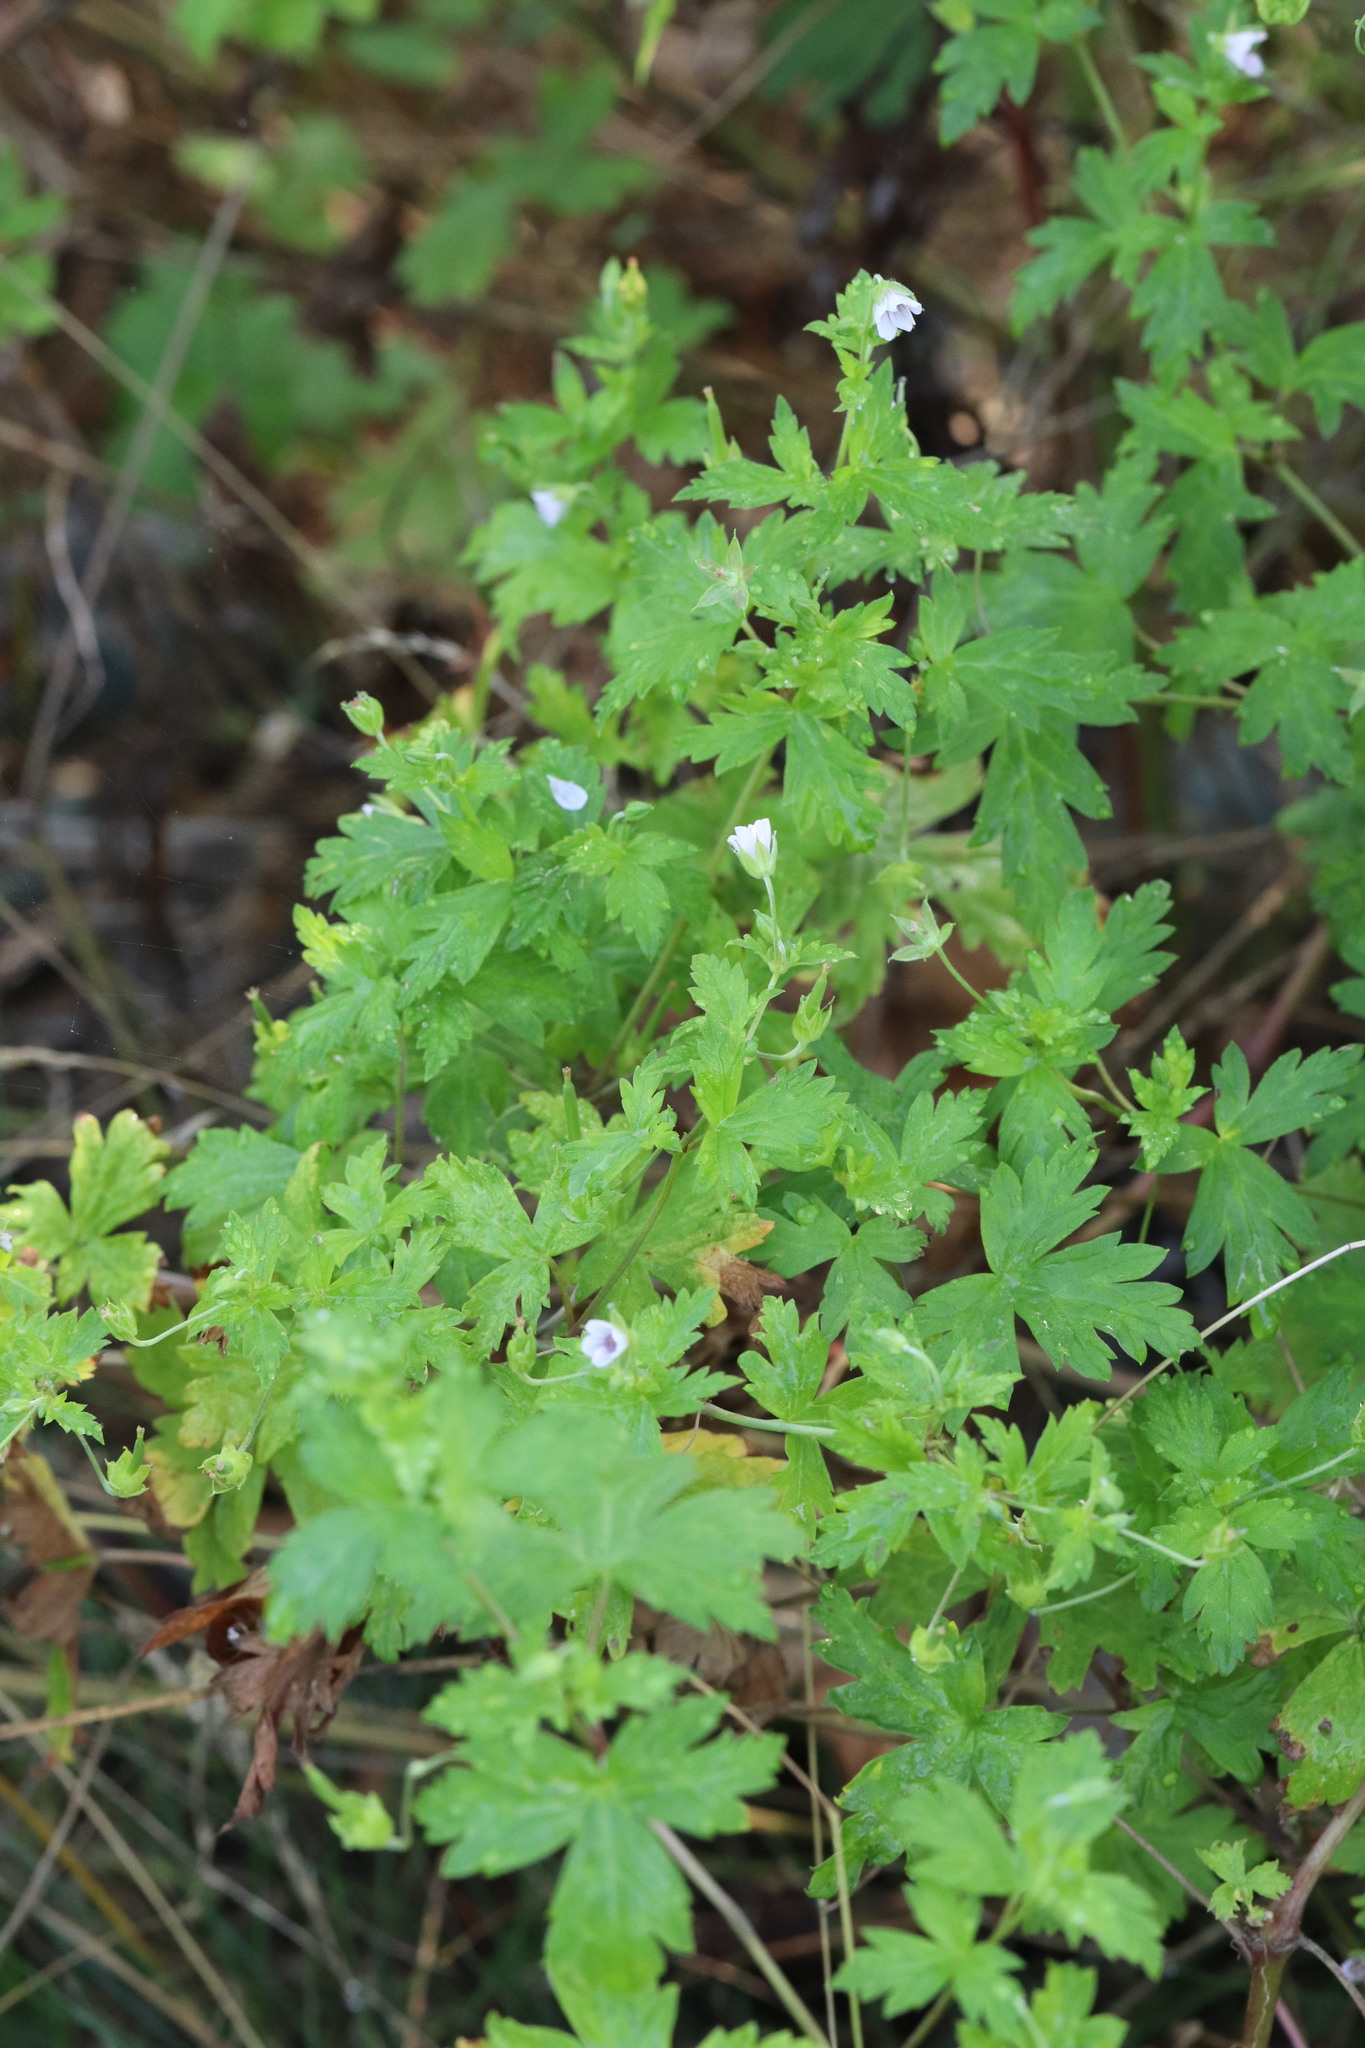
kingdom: Plantae
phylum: Tracheophyta
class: Magnoliopsida
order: Geraniales
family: Geraniaceae
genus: Geranium
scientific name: Geranium sibiricum
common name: Siberian crane's-bill
